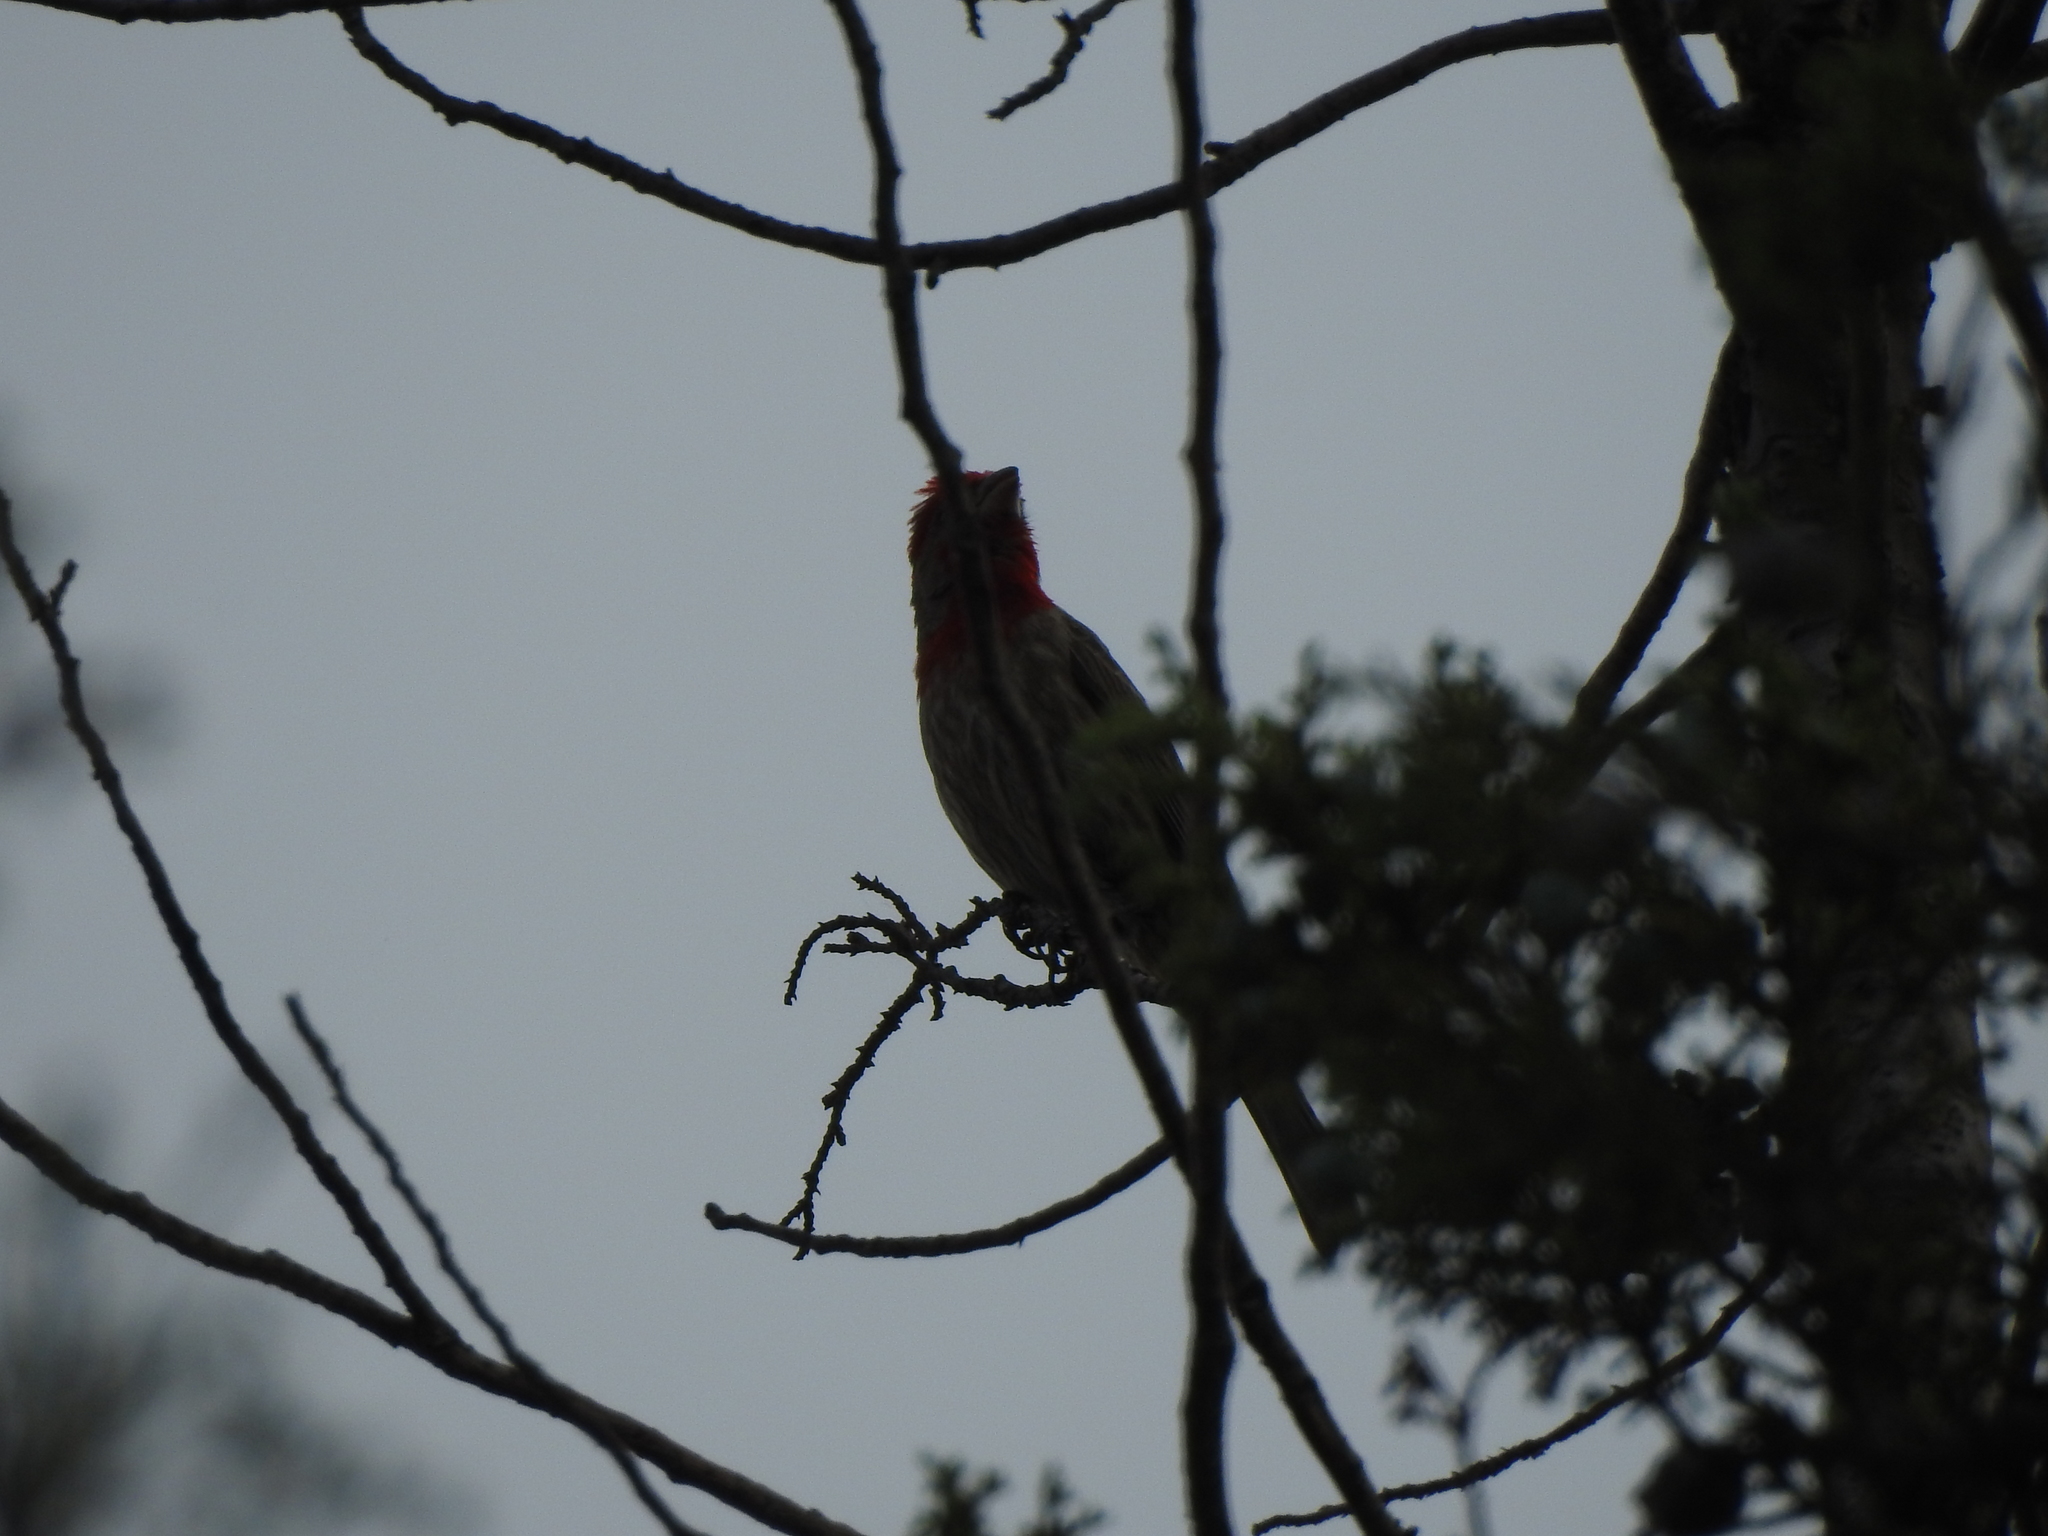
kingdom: Animalia
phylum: Chordata
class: Aves
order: Passeriformes
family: Fringillidae
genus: Haemorhous
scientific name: Haemorhous mexicanus
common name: House finch
